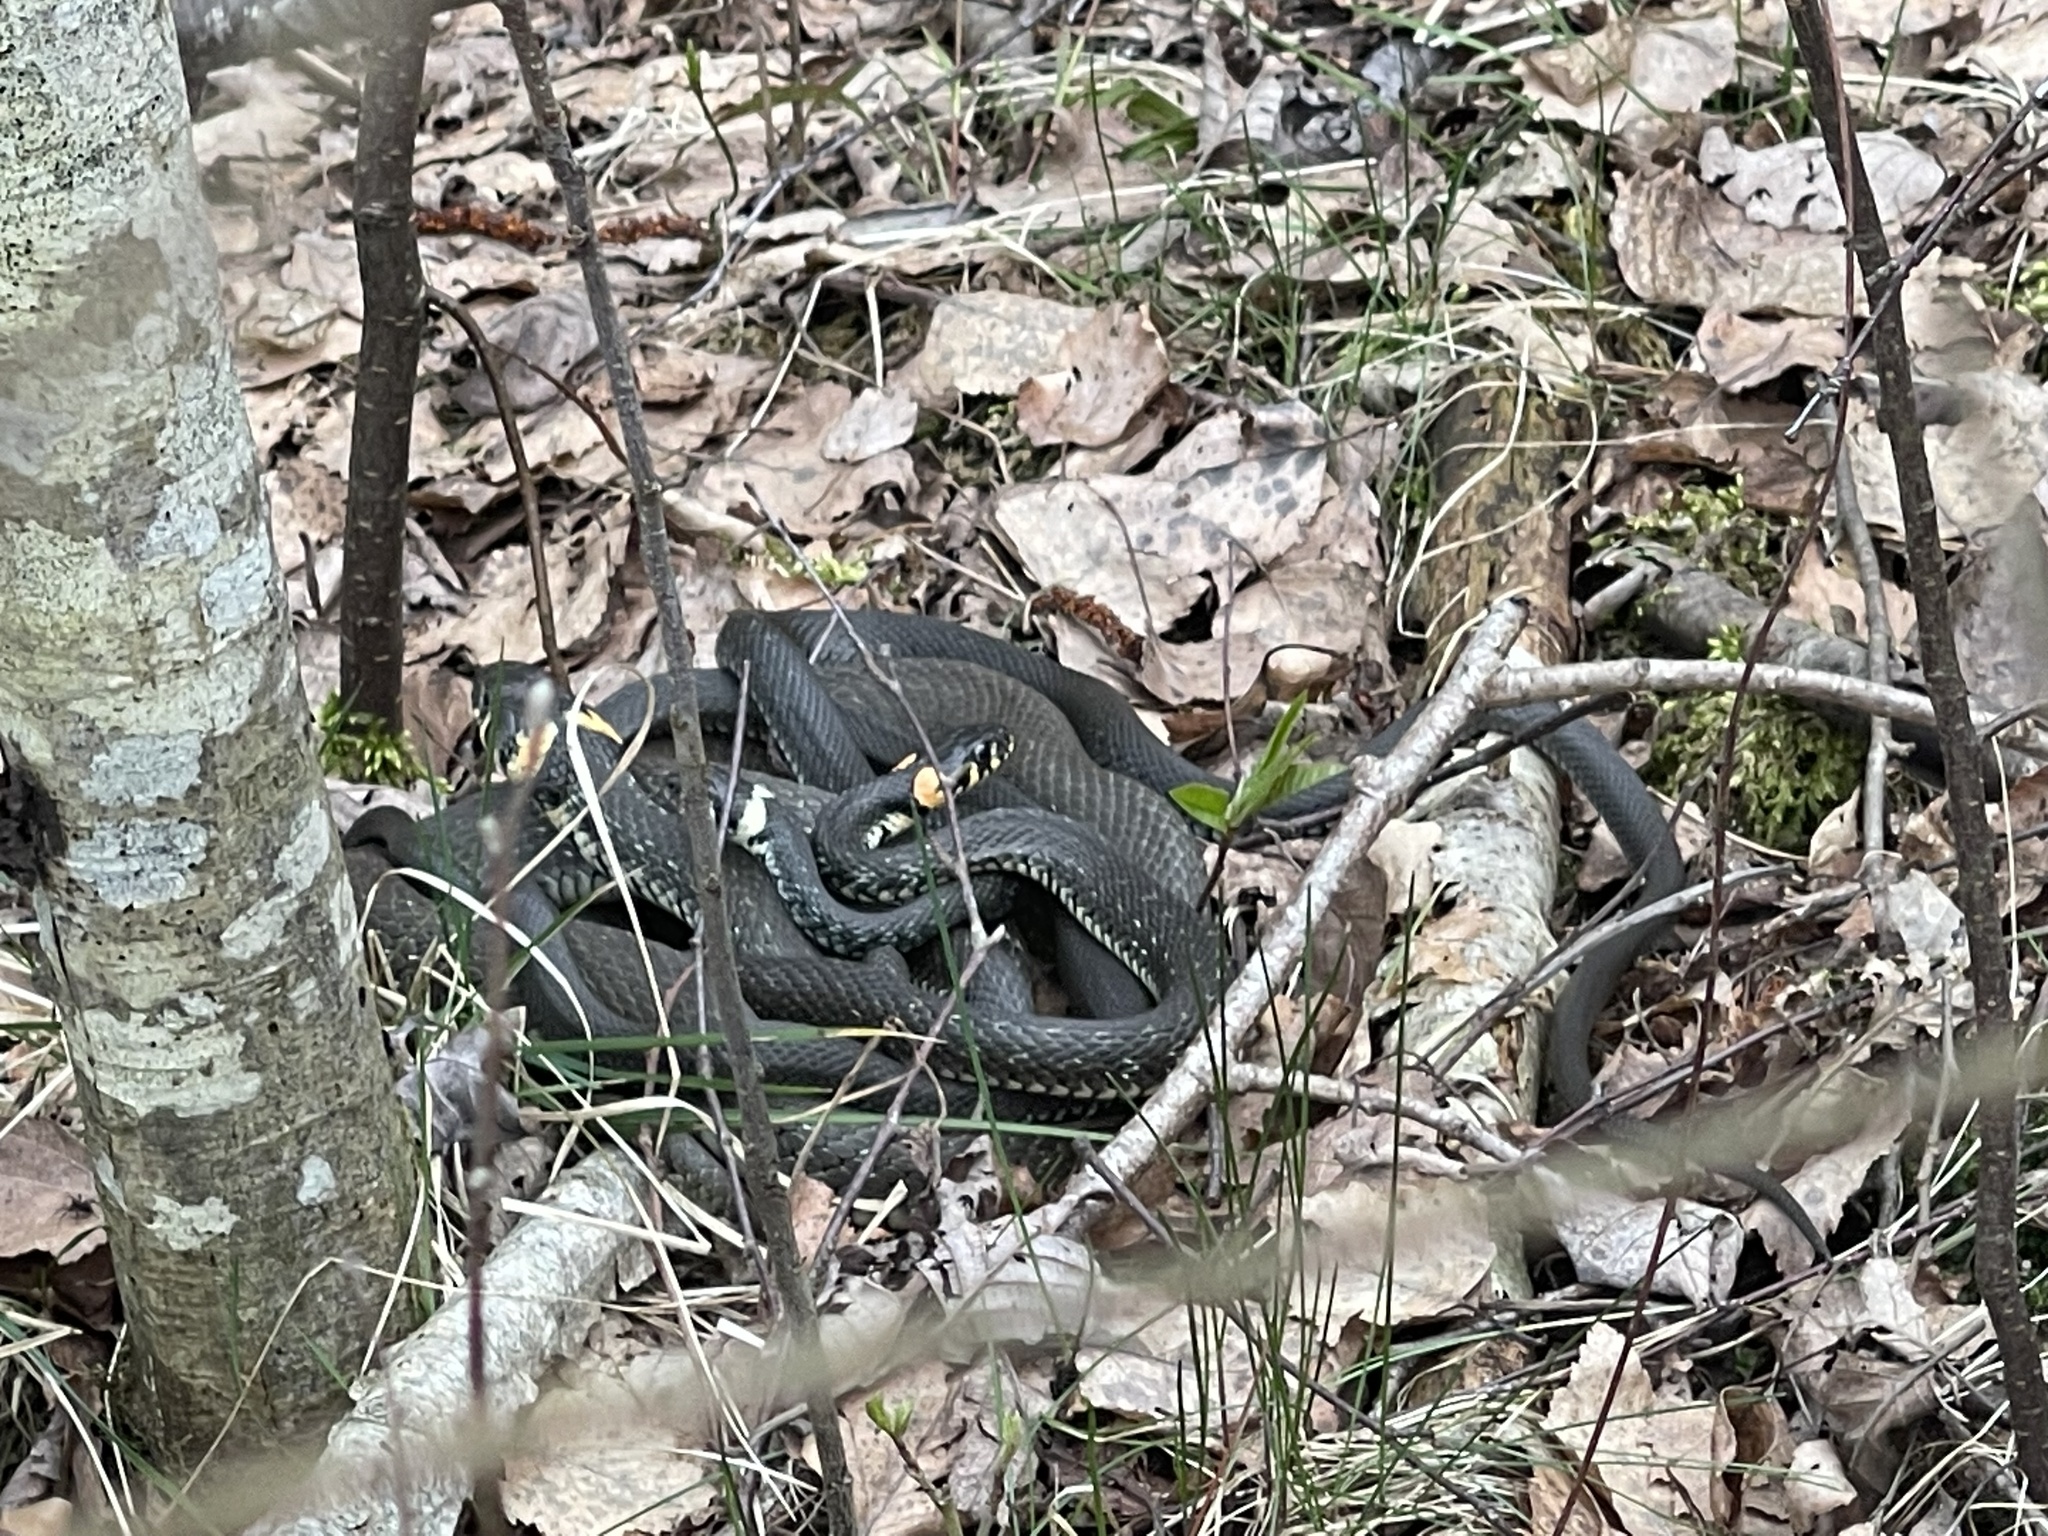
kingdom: Animalia
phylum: Chordata
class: Squamata
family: Colubridae
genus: Natrix
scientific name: Natrix natrix
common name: Grass snake
